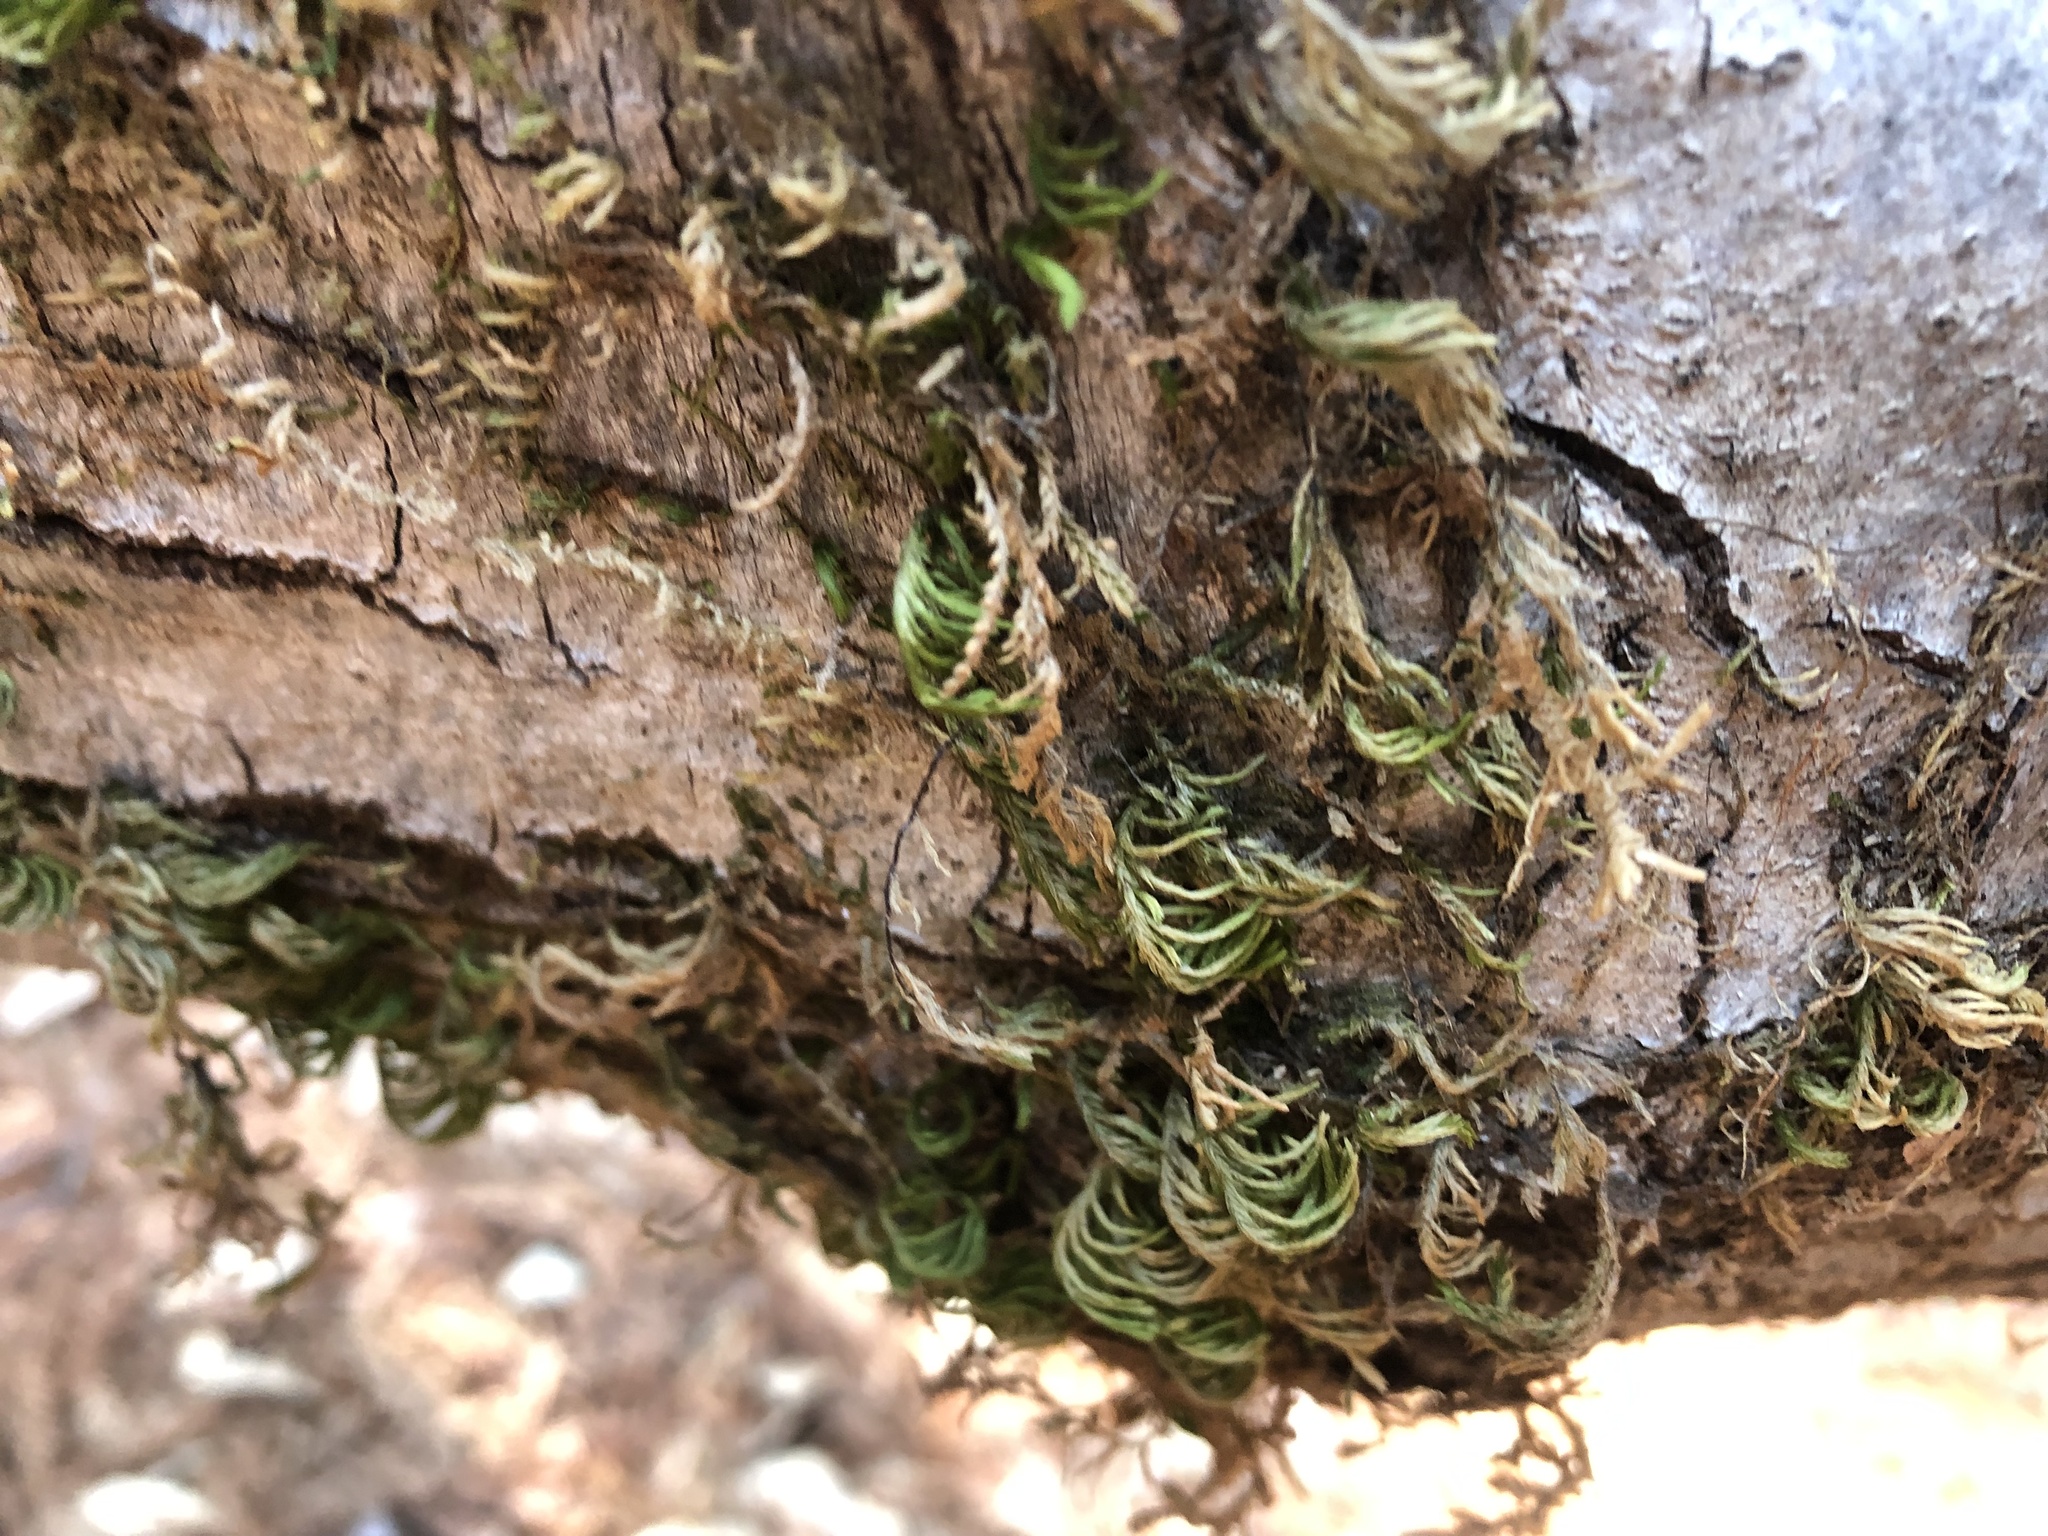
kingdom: Plantae
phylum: Bryophyta
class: Bryopsida
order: Hypnales
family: Cryphaeaceae
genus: Dendroalsia
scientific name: Dendroalsia abietina
